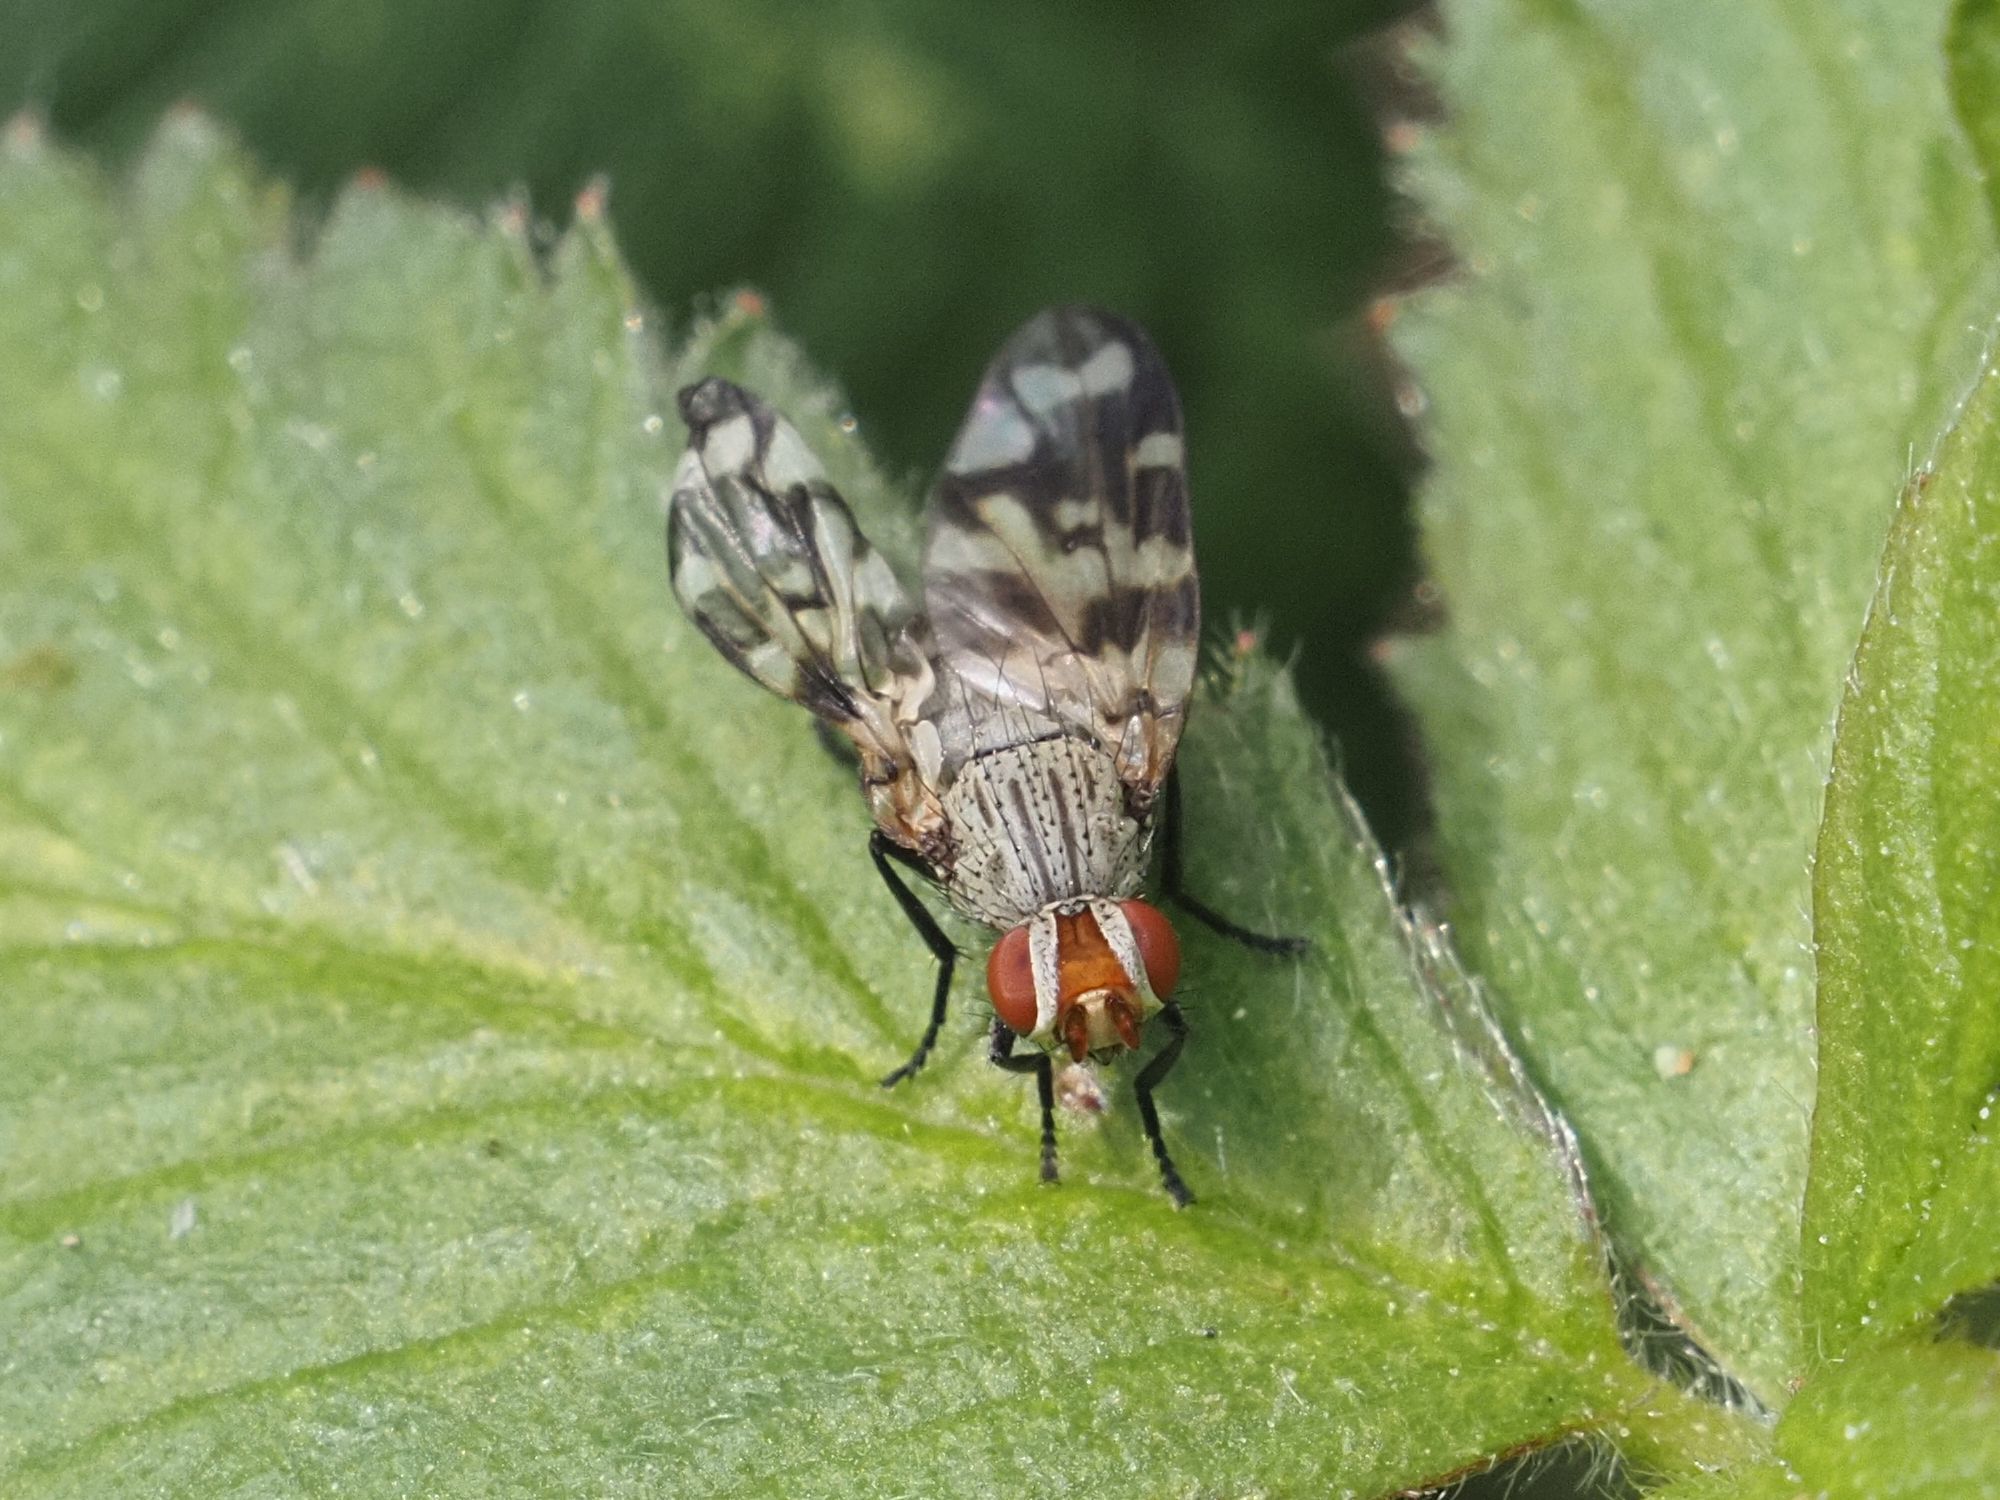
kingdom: Animalia
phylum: Arthropoda
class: Insecta
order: Diptera
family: Ulidiidae
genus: Otites
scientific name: Otites centralis
